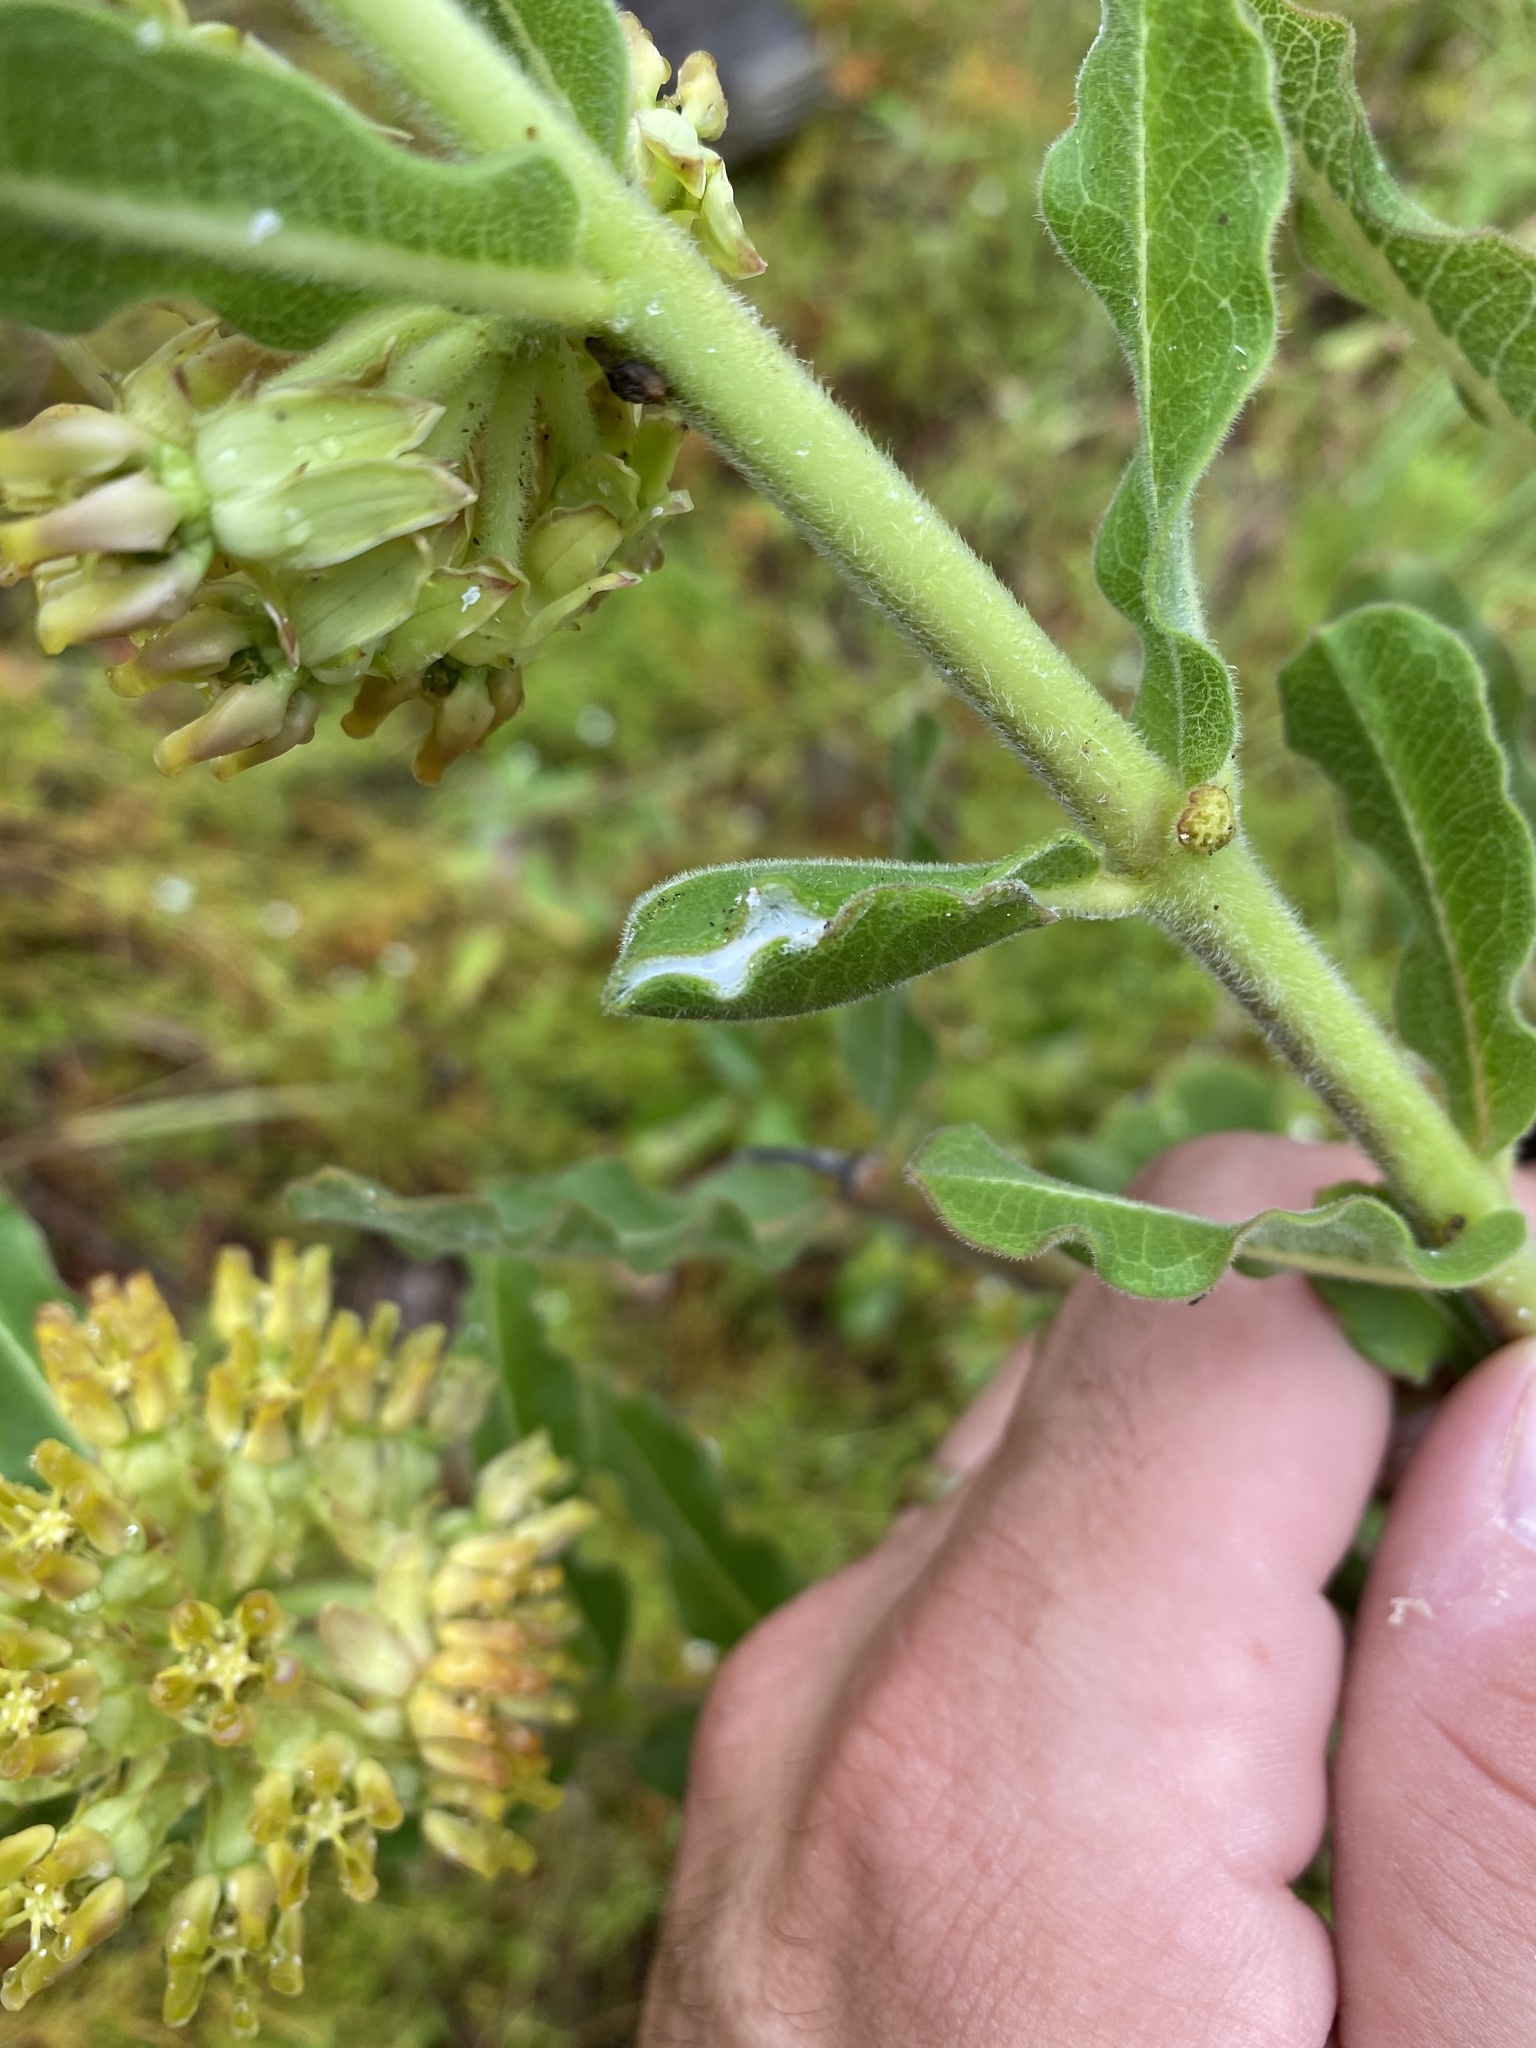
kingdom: Plantae
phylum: Tracheophyta
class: Magnoliopsida
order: Gentianales
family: Apocynaceae
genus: Asclepias
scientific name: Asclepias obovata
